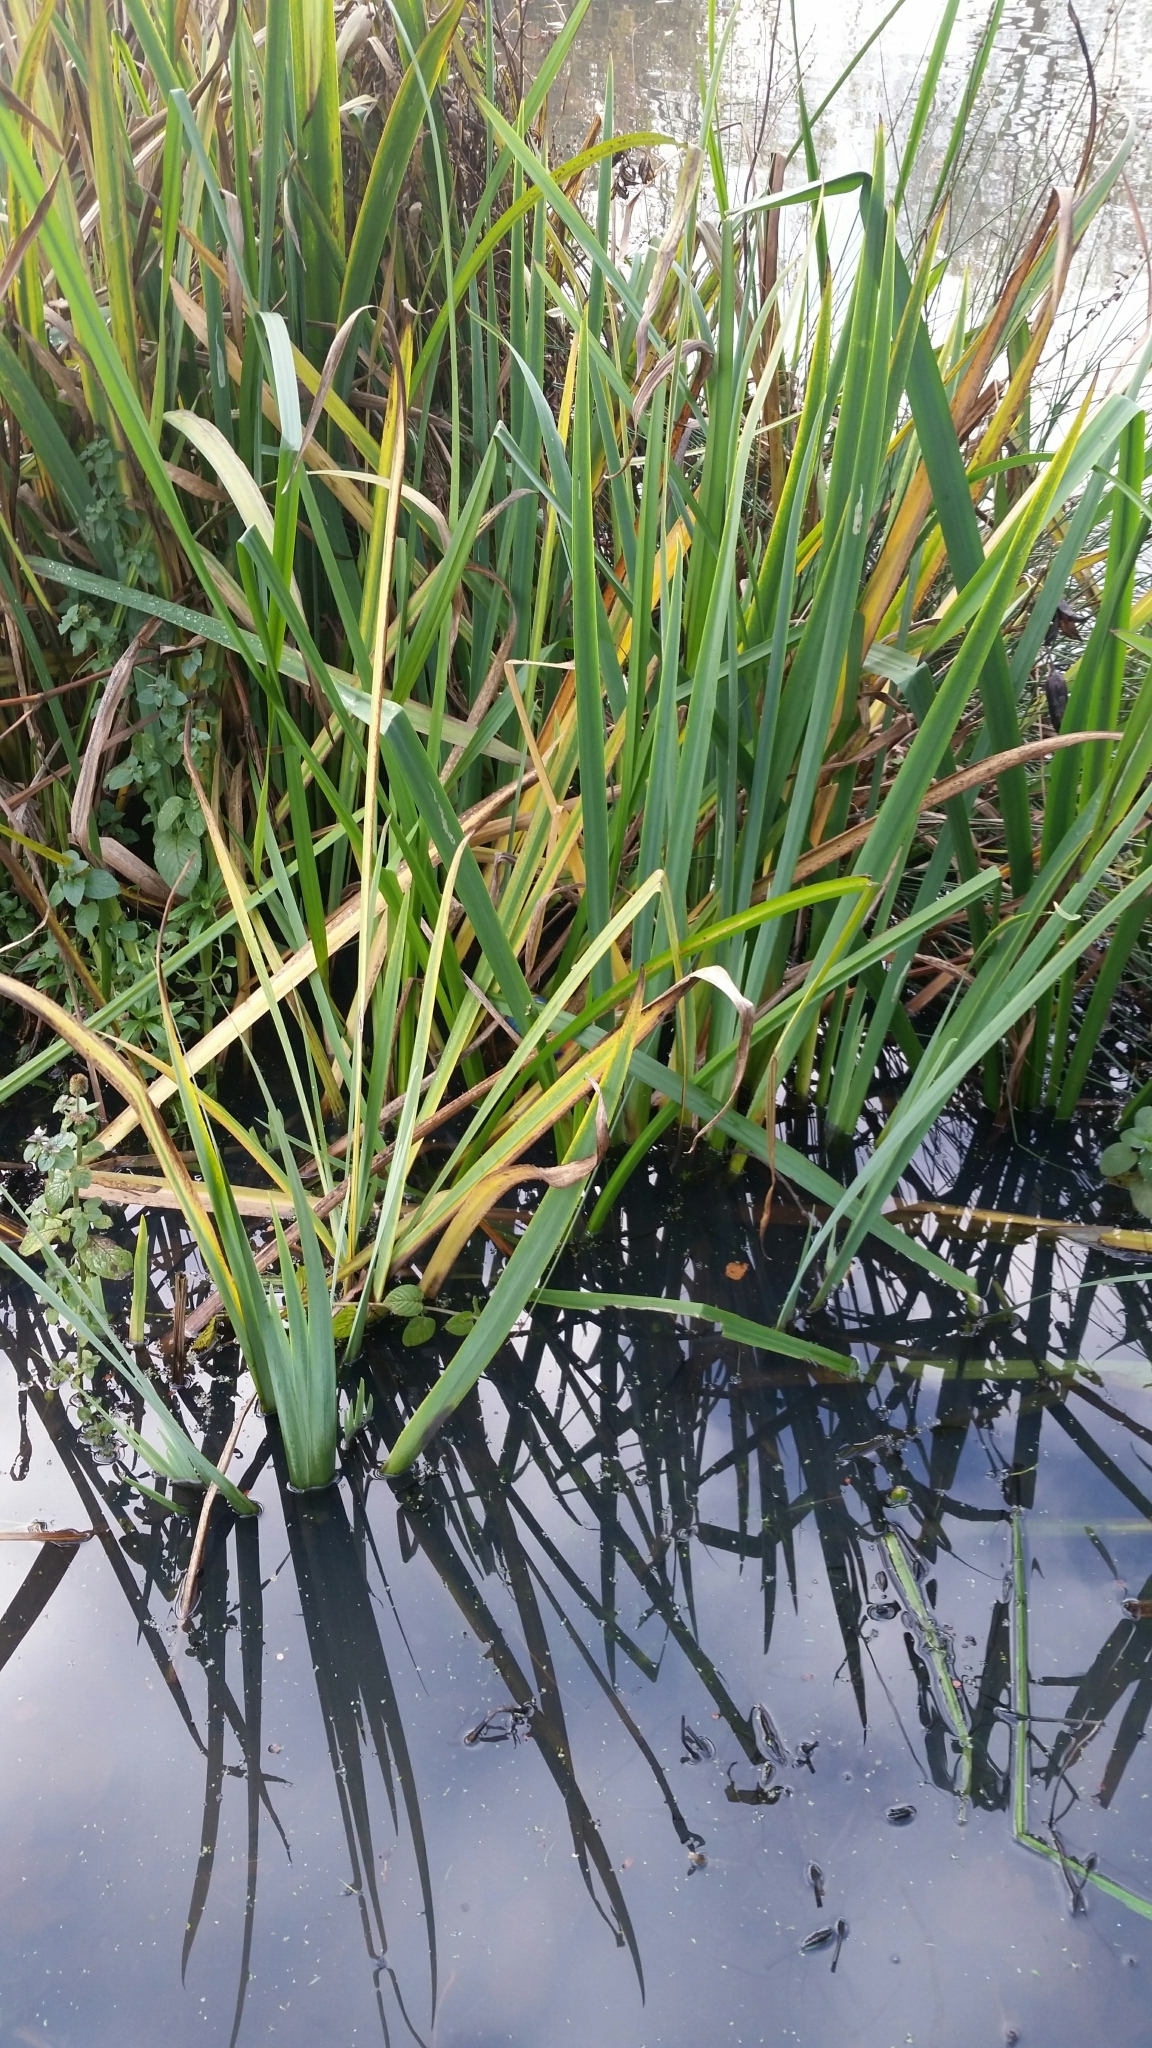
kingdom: Plantae
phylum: Tracheophyta
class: Liliopsida
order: Asparagales
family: Iridaceae
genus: Iris
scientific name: Iris pseudacorus
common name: Yellow flag
